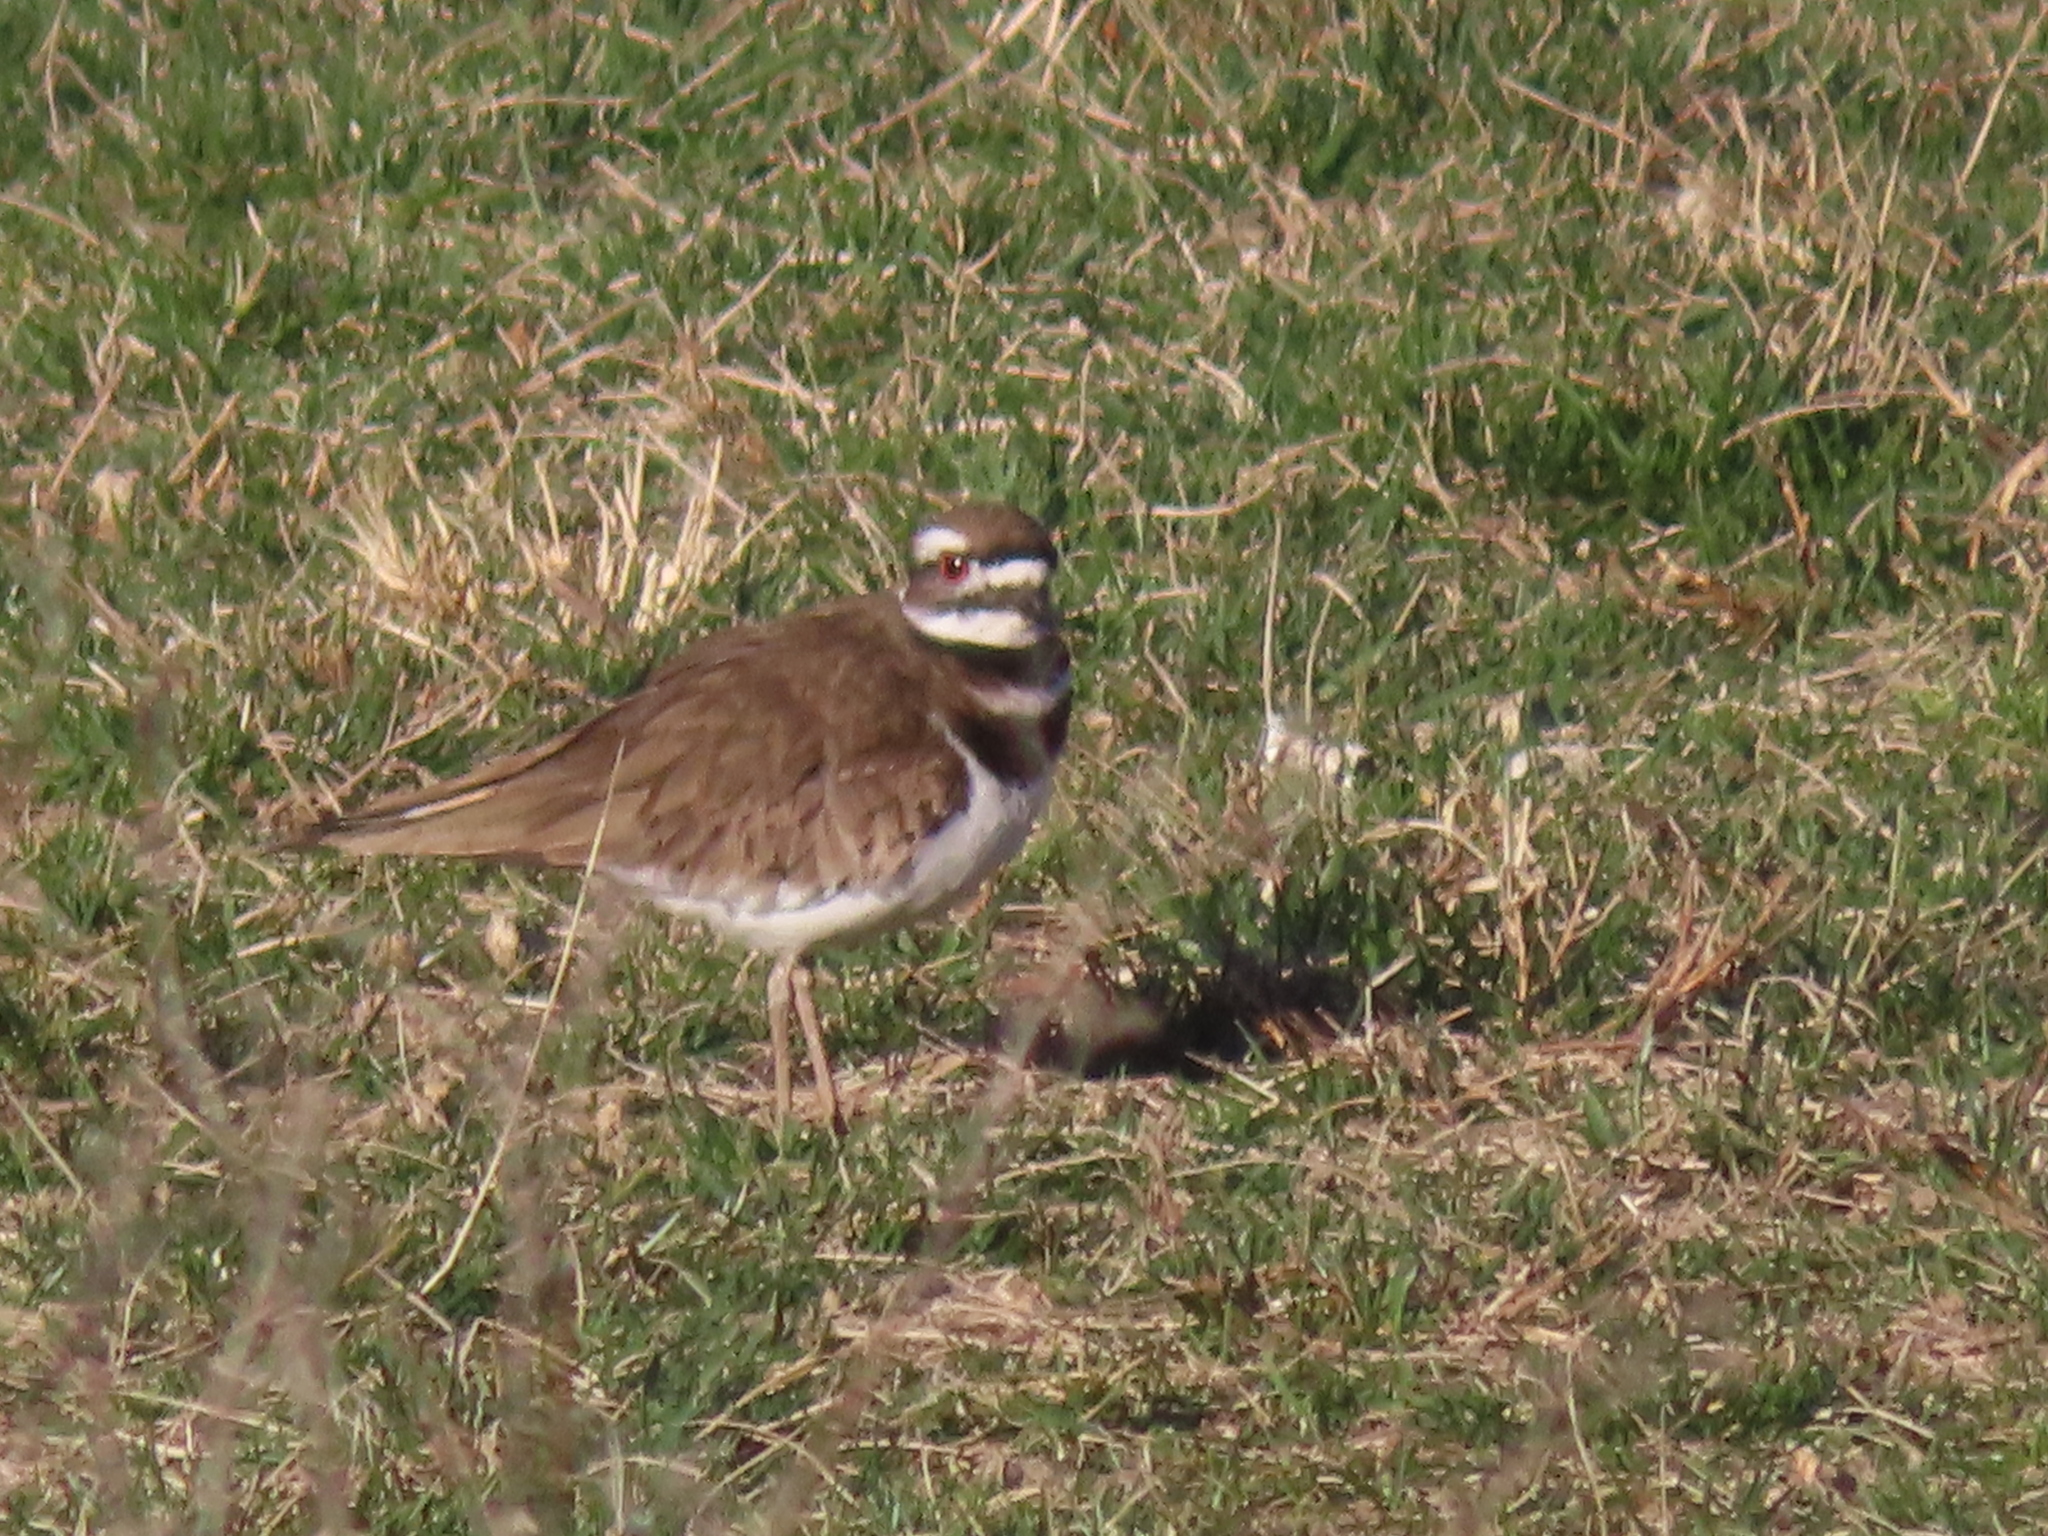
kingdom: Animalia
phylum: Chordata
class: Aves
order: Charadriiformes
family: Charadriidae
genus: Charadrius
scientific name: Charadrius vociferus
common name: Killdeer
